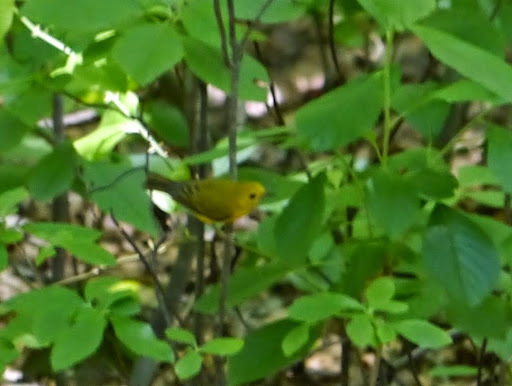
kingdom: Animalia
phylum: Chordata
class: Aves
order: Passeriformes
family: Parulidae
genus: Setophaga
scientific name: Setophaga petechia
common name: Yellow warbler
